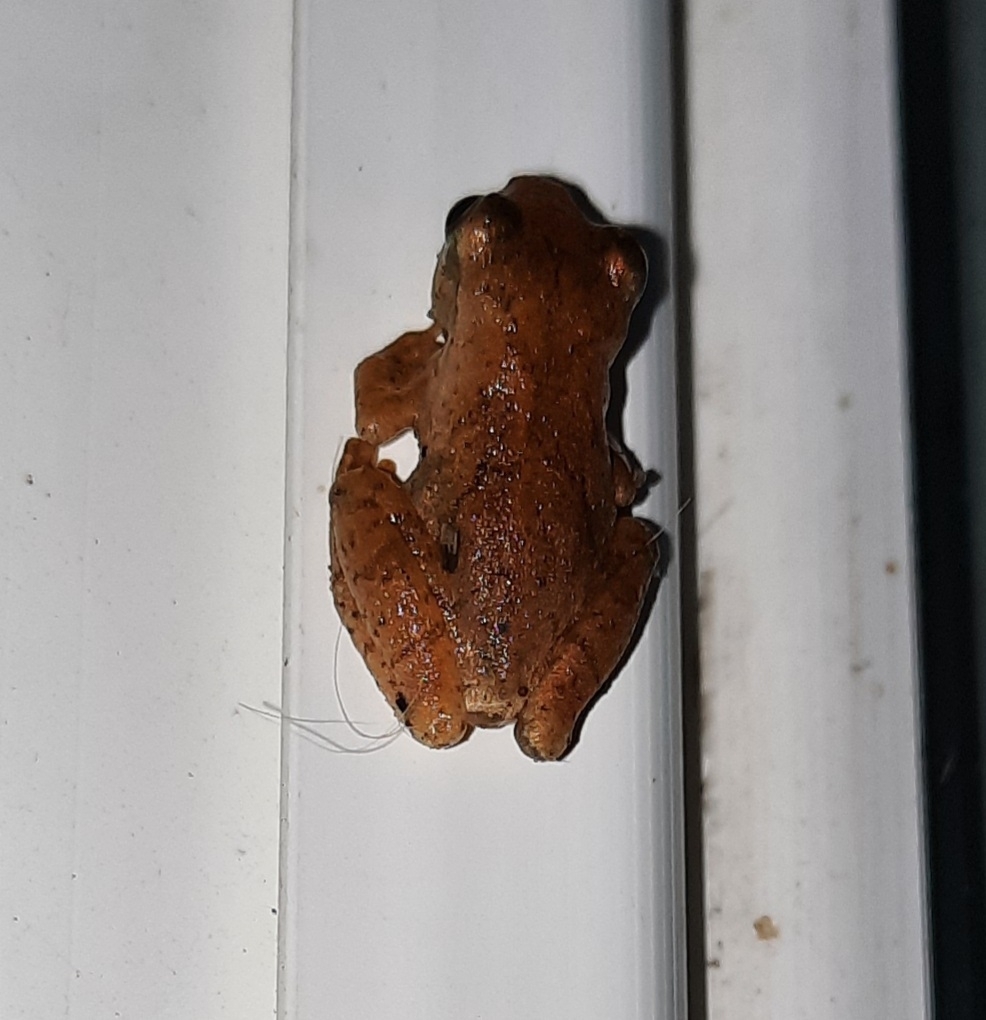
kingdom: Animalia
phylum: Chordata
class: Amphibia
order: Anura
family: Hylidae
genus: Pseudacris
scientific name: Pseudacris crucifer
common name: Spring peeper
